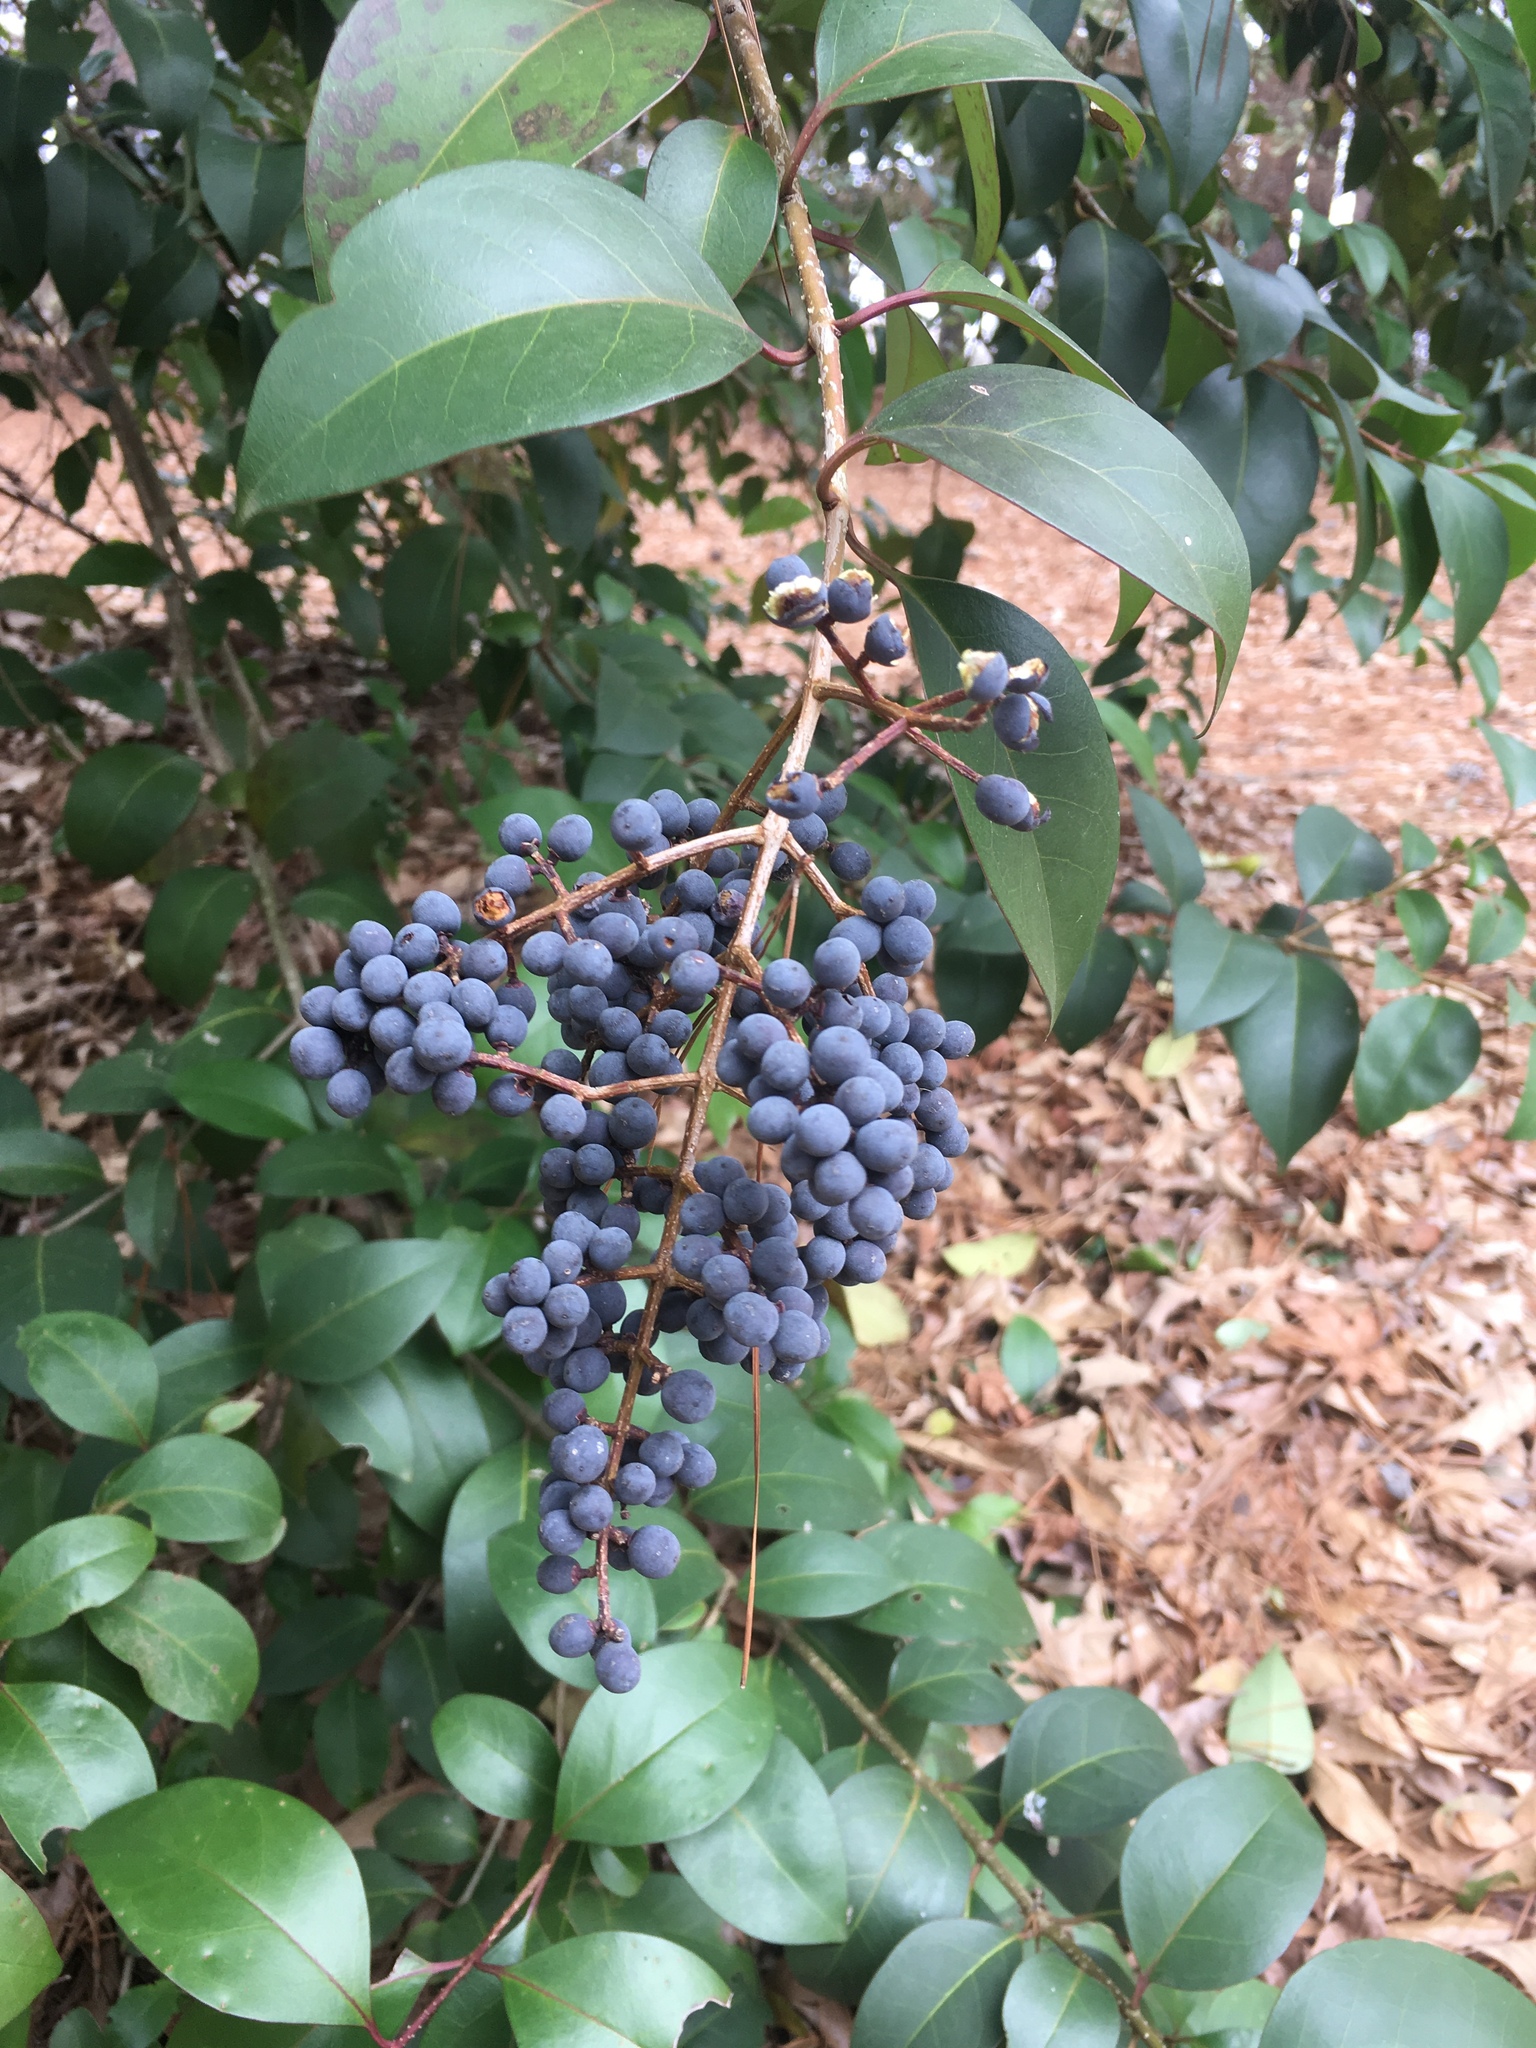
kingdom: Plantae
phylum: Tracheophyta
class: Magnoliopsida
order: Lamiales
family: Oleaceae
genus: Ligustrum
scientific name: Ligustrum lucidum
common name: Glossy privet
